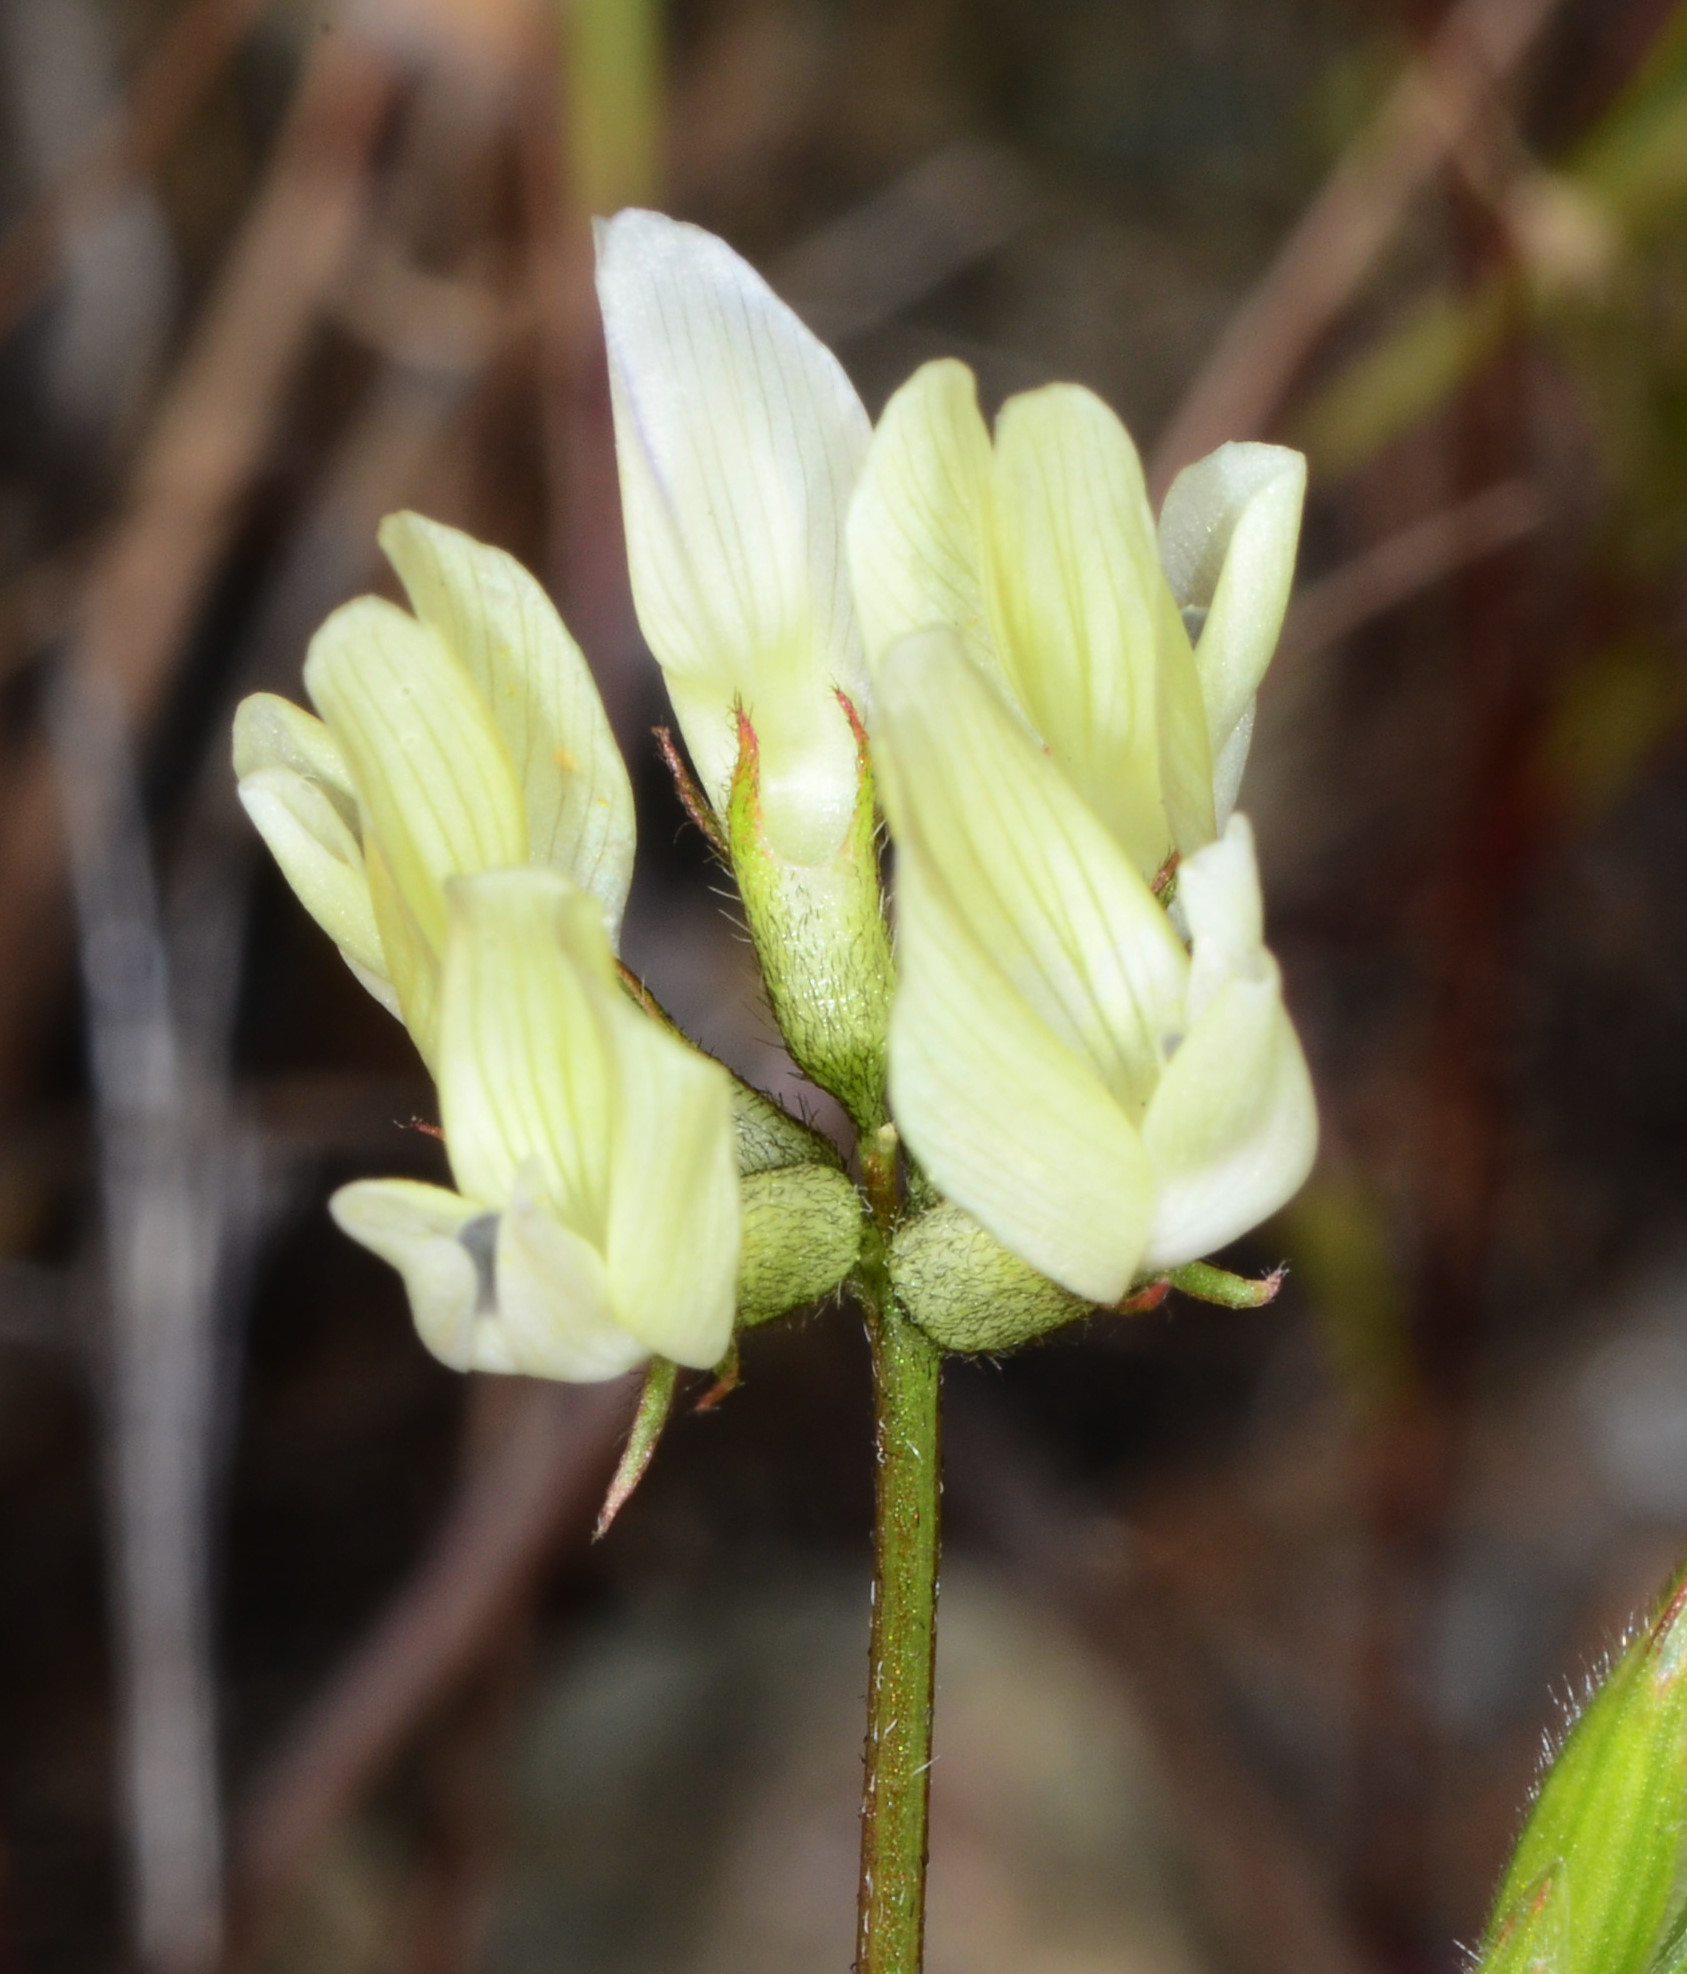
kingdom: Plantae
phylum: Tracheophyta
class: Magnoliopsida
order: Fabales
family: Fabaceae
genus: Astragalus
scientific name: Astragalus breweri
